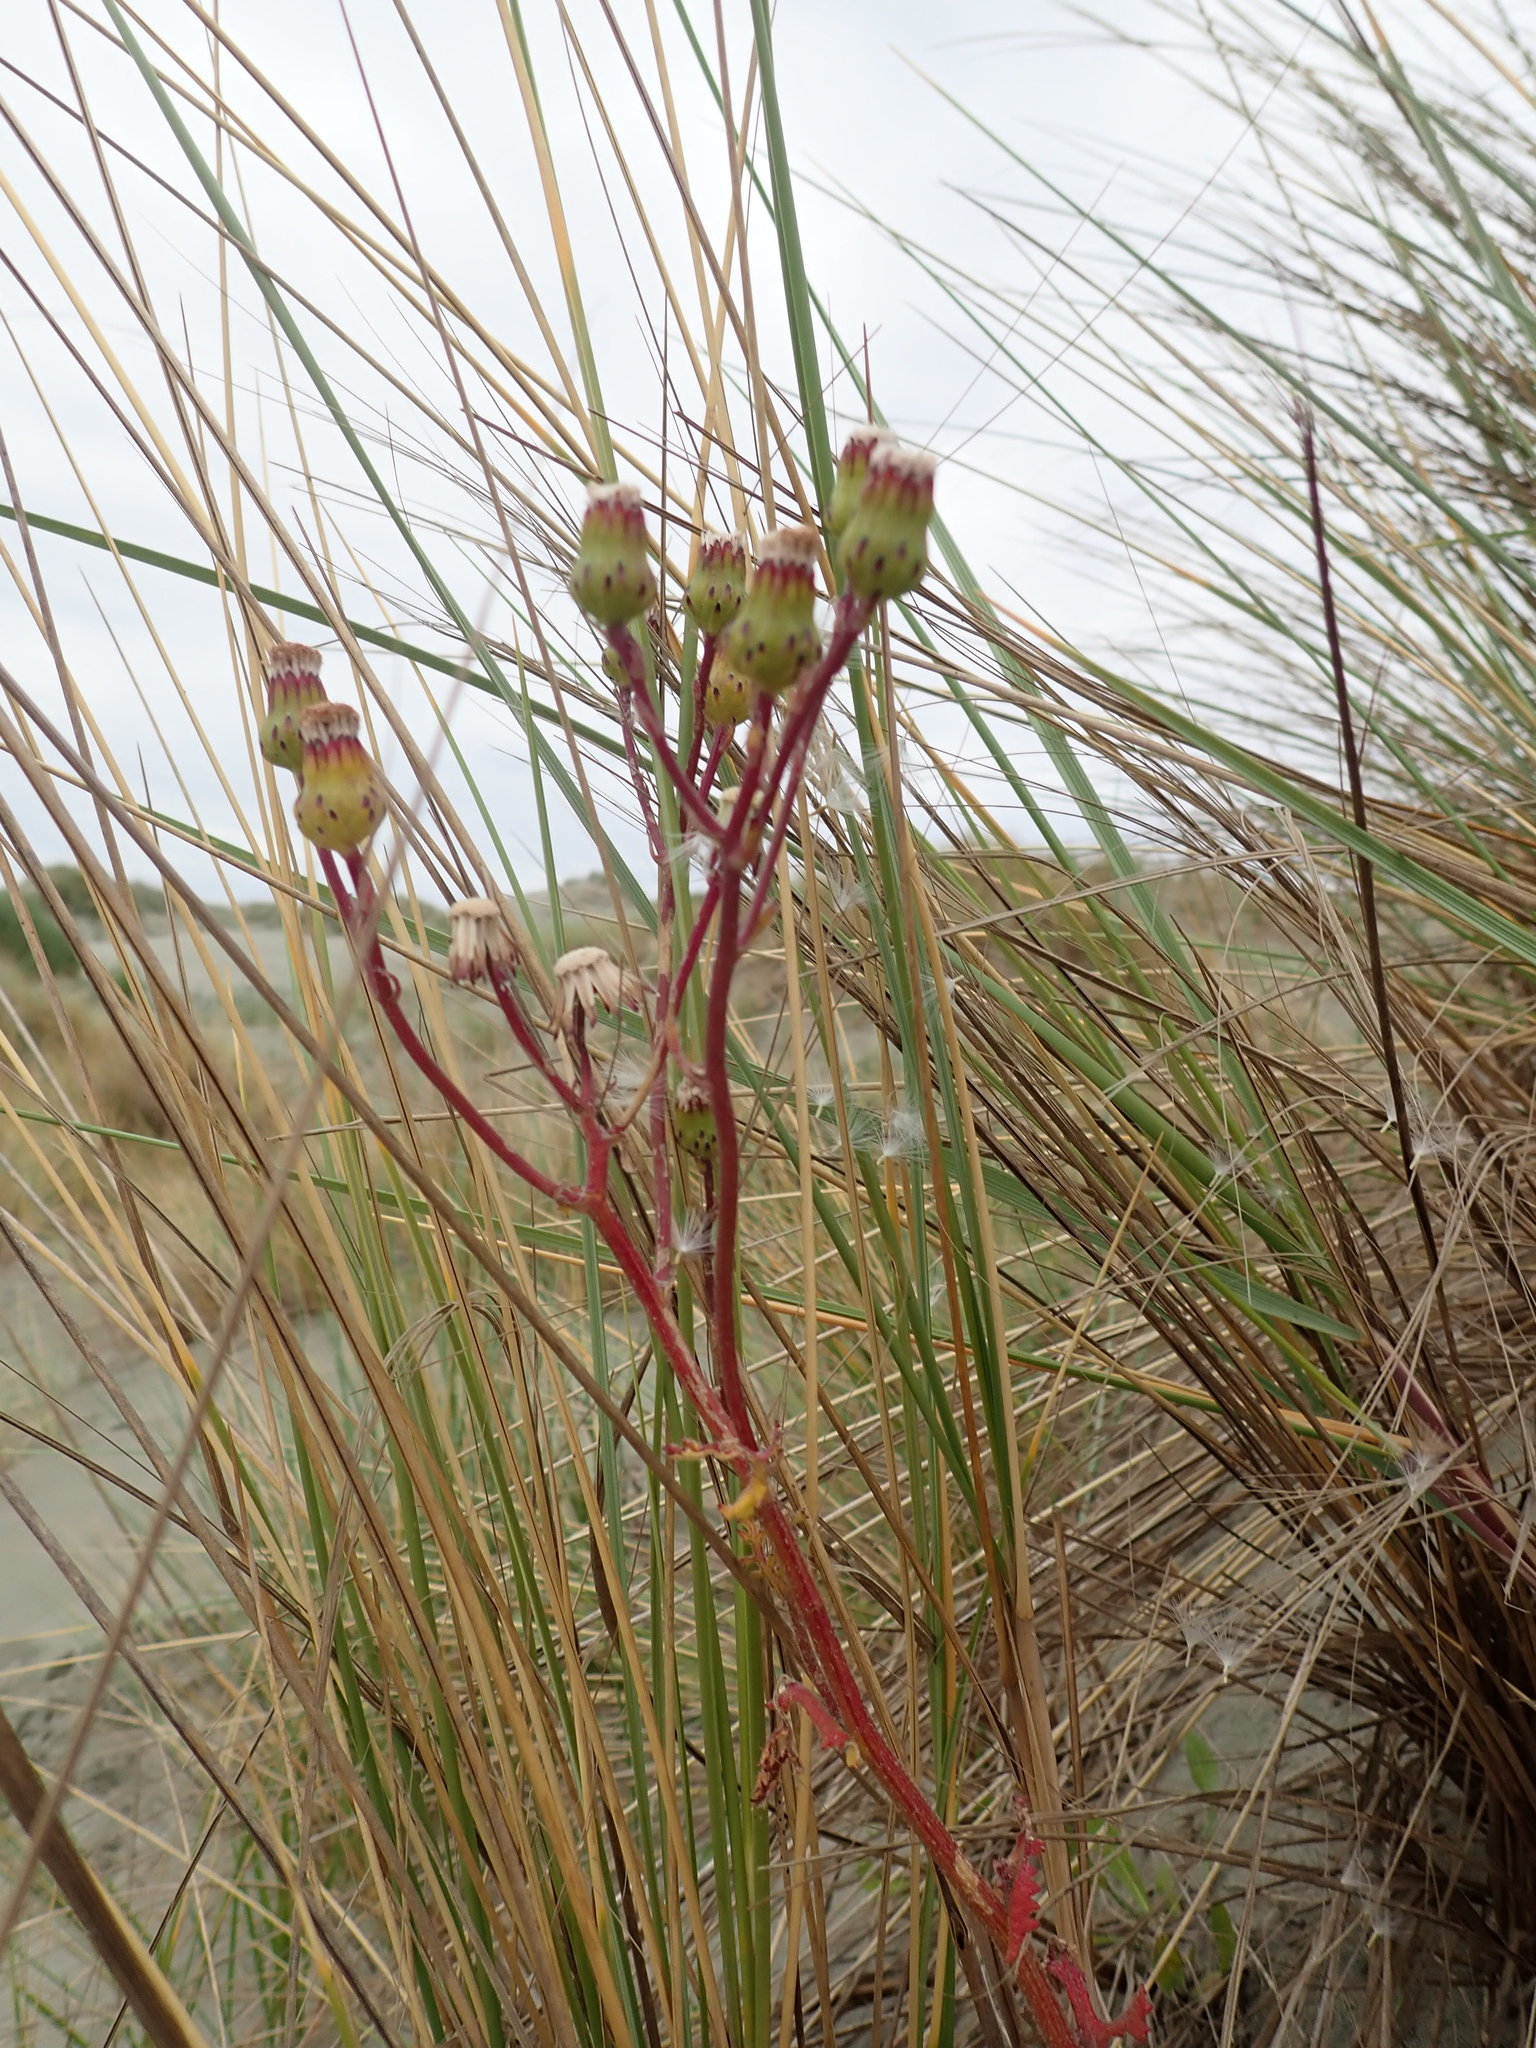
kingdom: Plantae
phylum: Tracheophyta
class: Magnoliopsida
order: Asterales
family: Asteraceae
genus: Senecio
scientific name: Senecio elegans
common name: Purple groundsel
